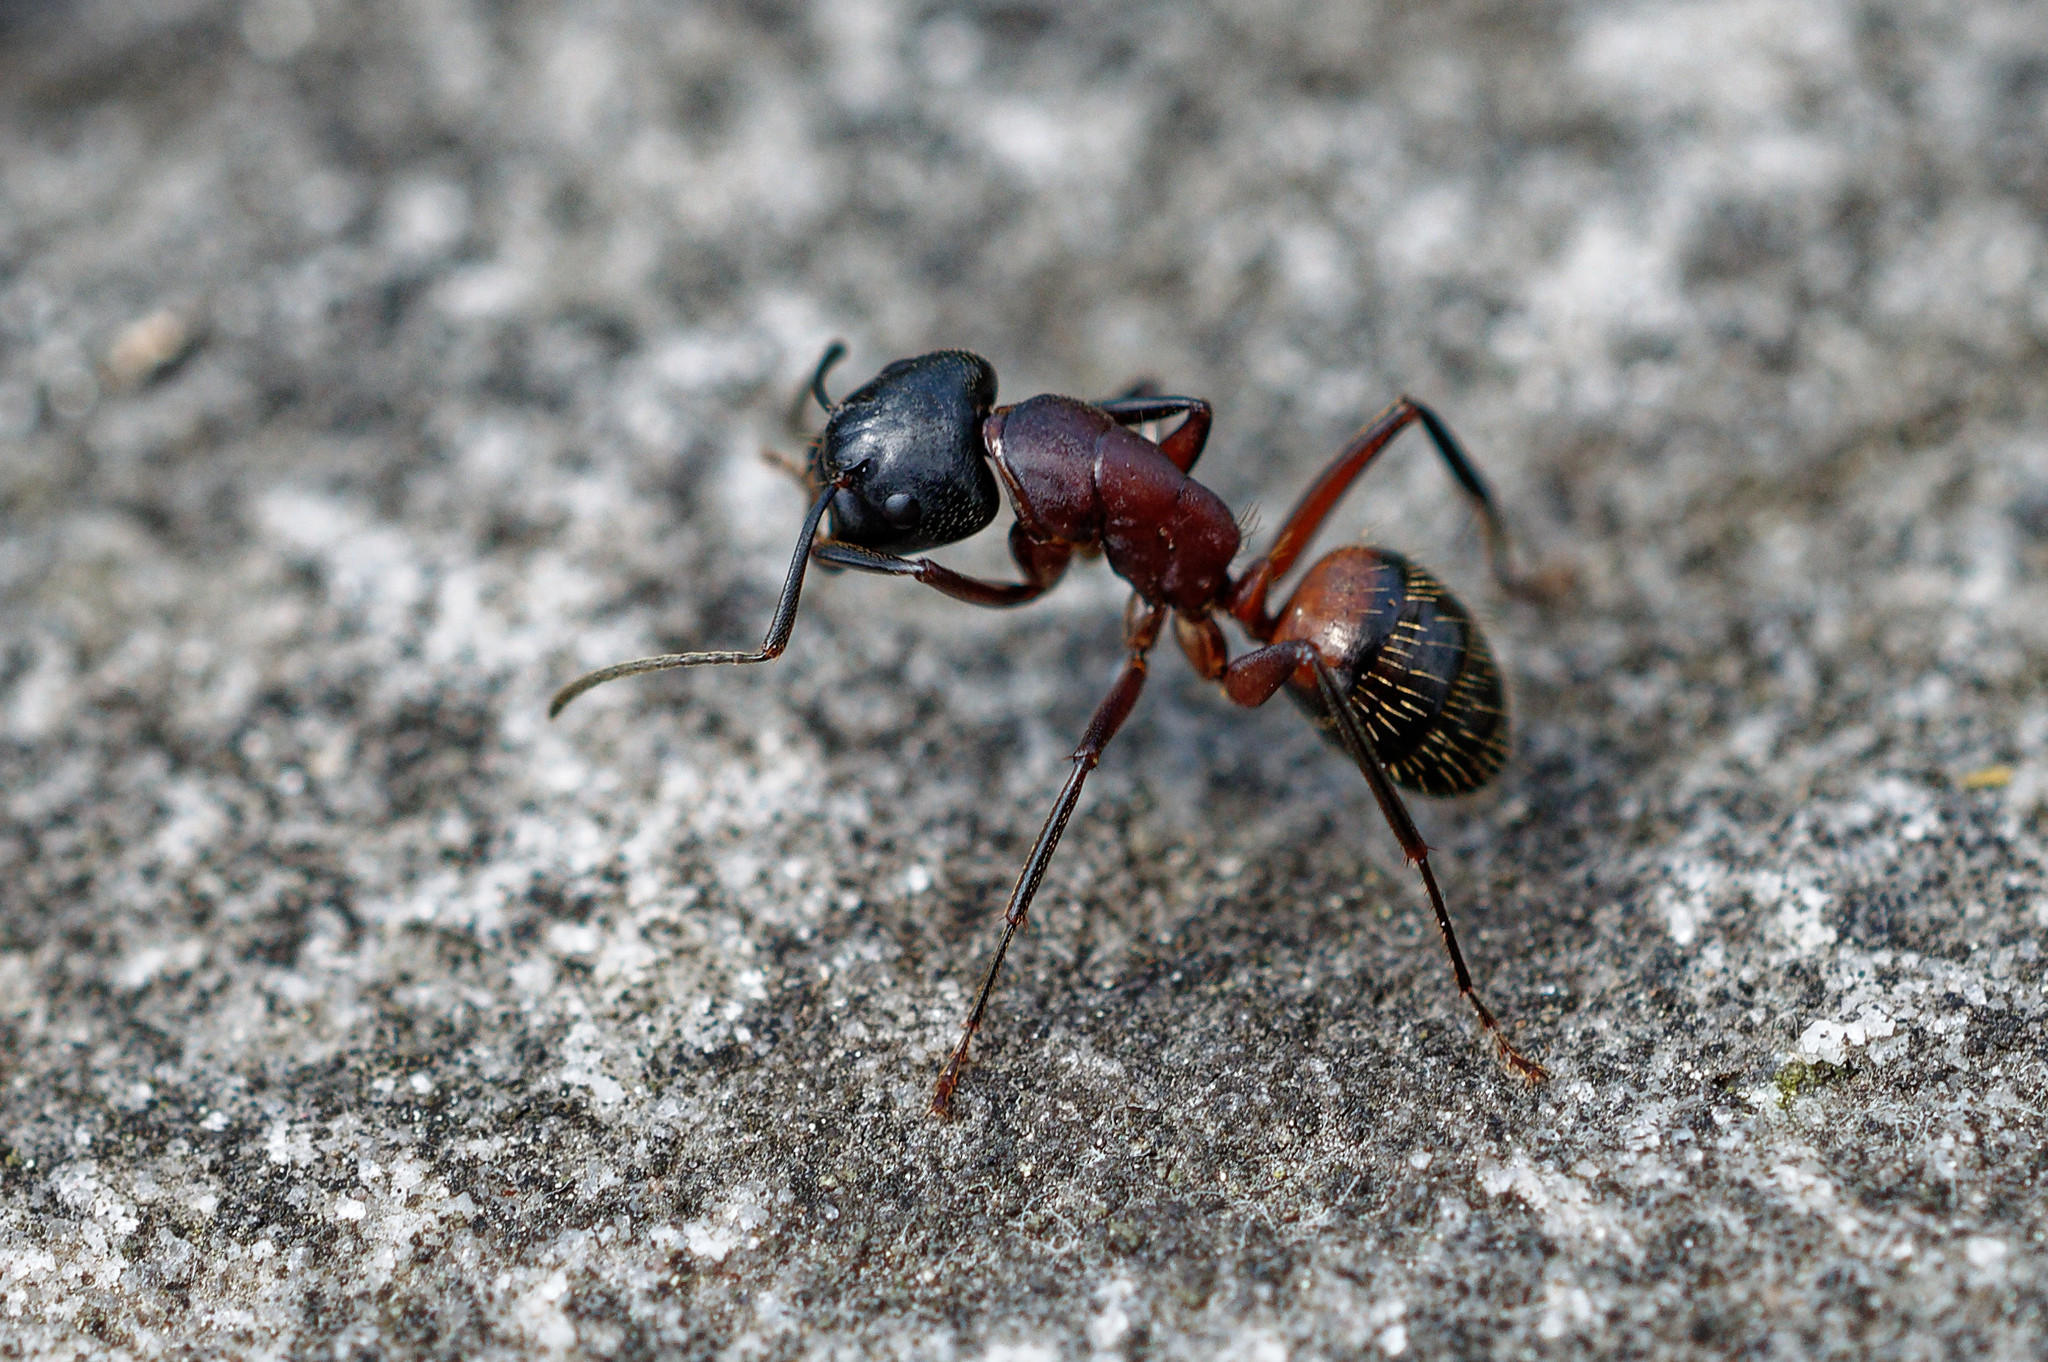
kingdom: Animalia
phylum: Arthropoda
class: Insecta
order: Hymenoptera
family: Formicidae
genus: Camponotus
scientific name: Camponotus ligniperdus
